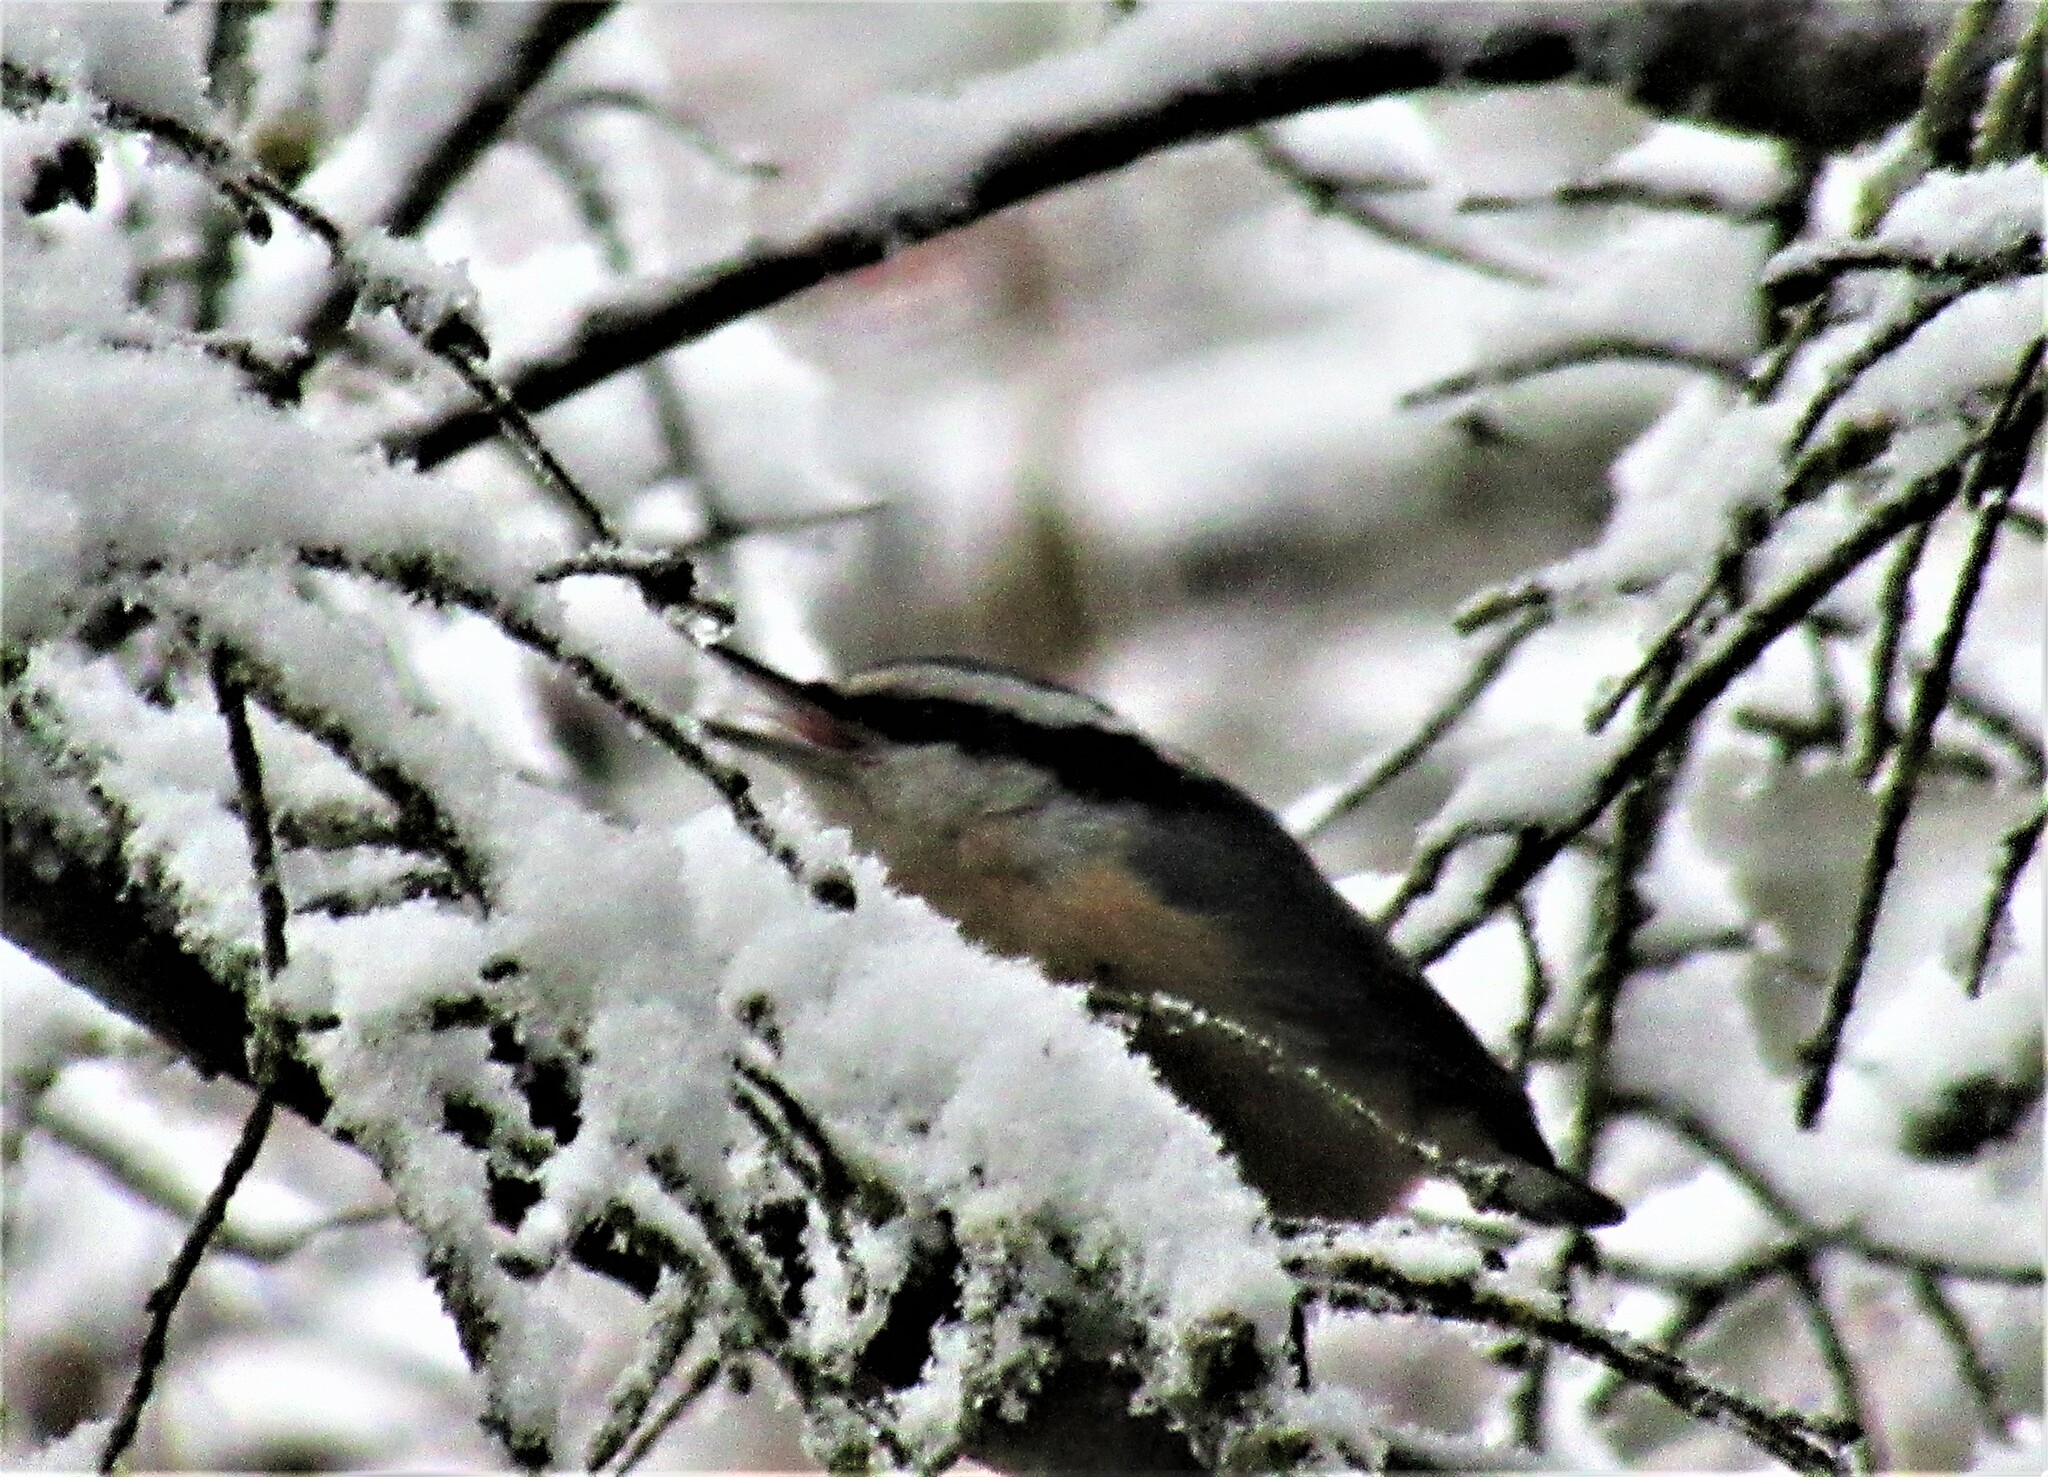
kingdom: Animalia
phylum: Chordata
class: Aves
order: Passeriformes
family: Sittidae
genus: Sitta
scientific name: Sitta canadensis
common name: Red-breasted nuthatch
